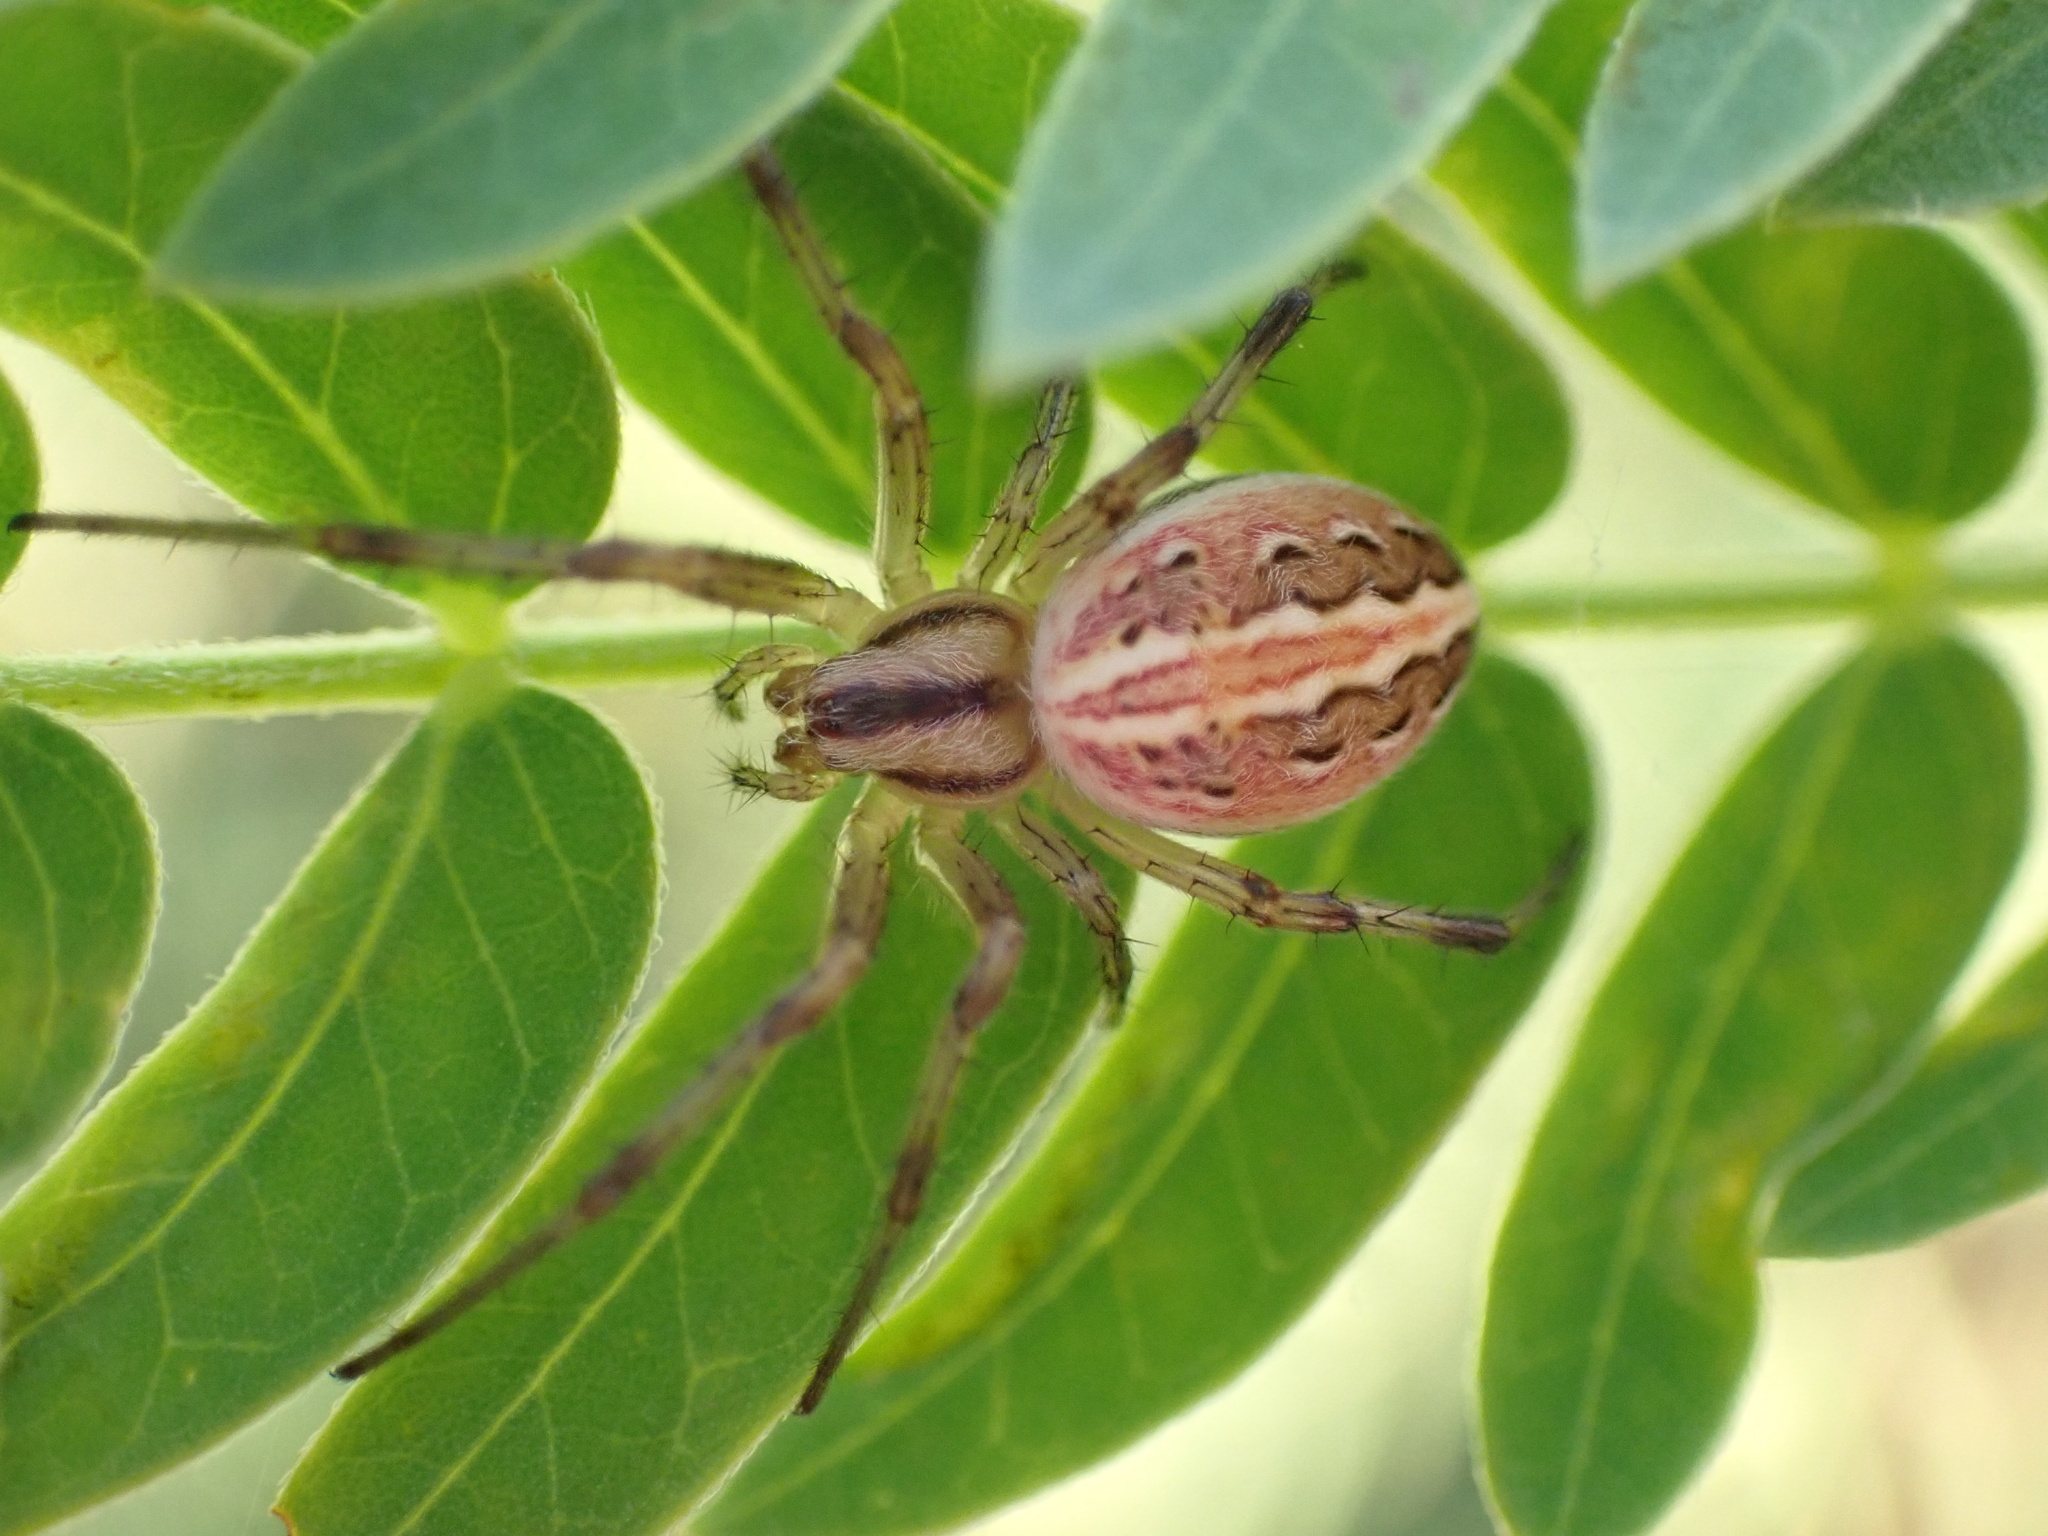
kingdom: Animalia
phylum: Arthropoda
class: Arachnida
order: Araneae
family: Araneidae
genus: Neoscona
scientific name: Neoscona moreli
